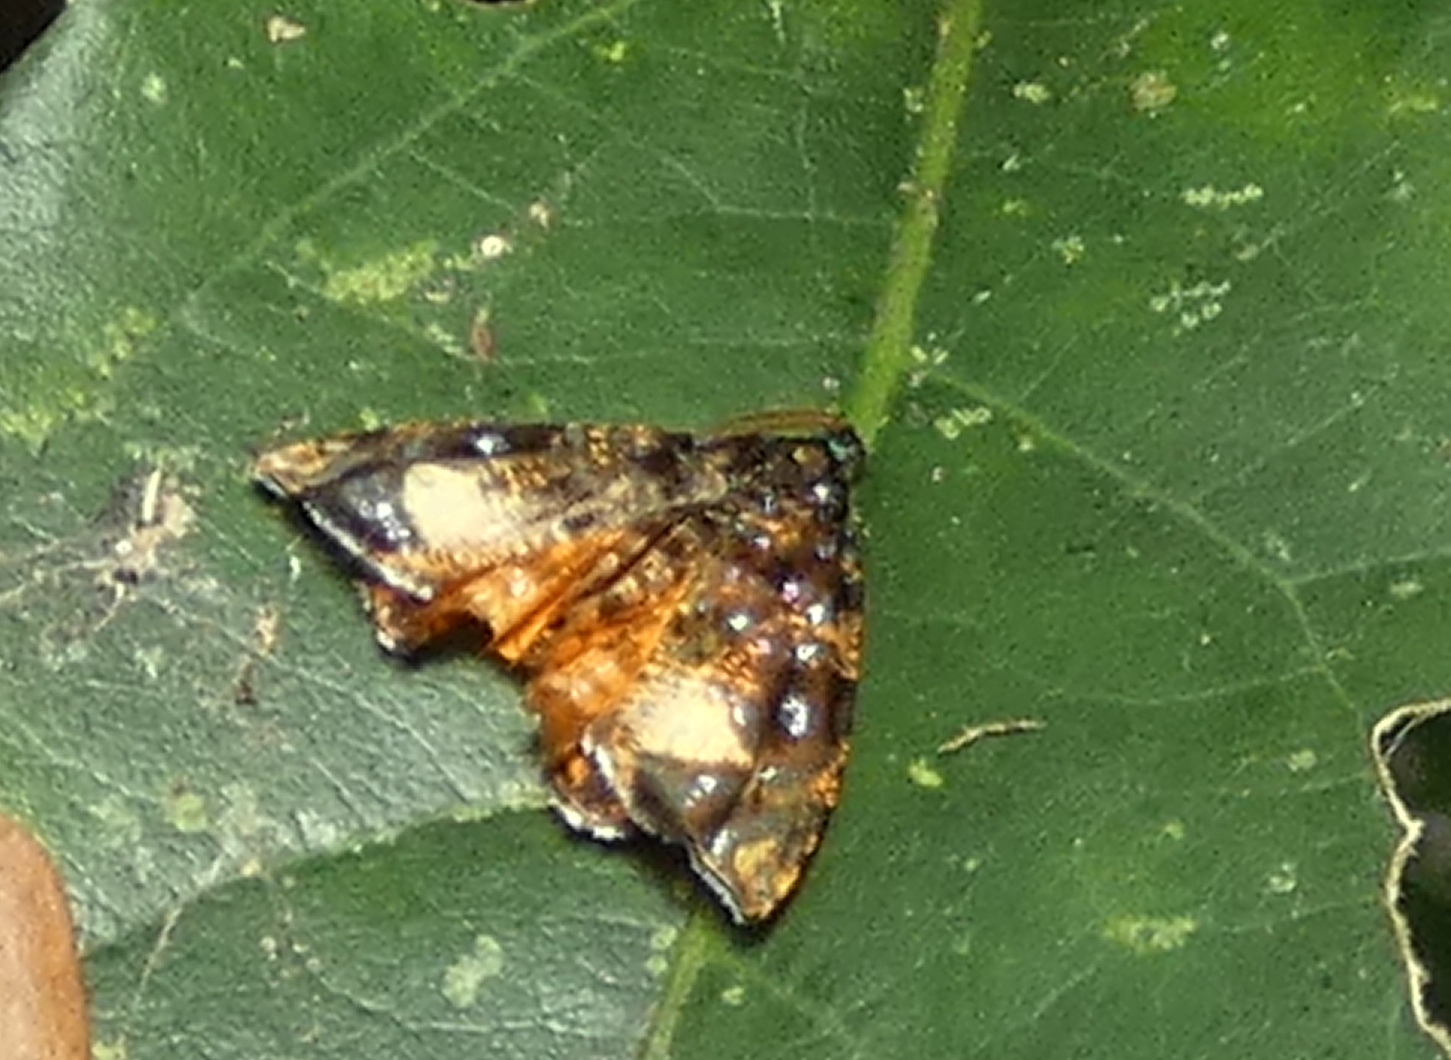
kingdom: Animalia
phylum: Arthropoda
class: Insecta
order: Lepidoptera
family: Tortricidae
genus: Mictopsichia
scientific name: Mictopsichia hubneriana
